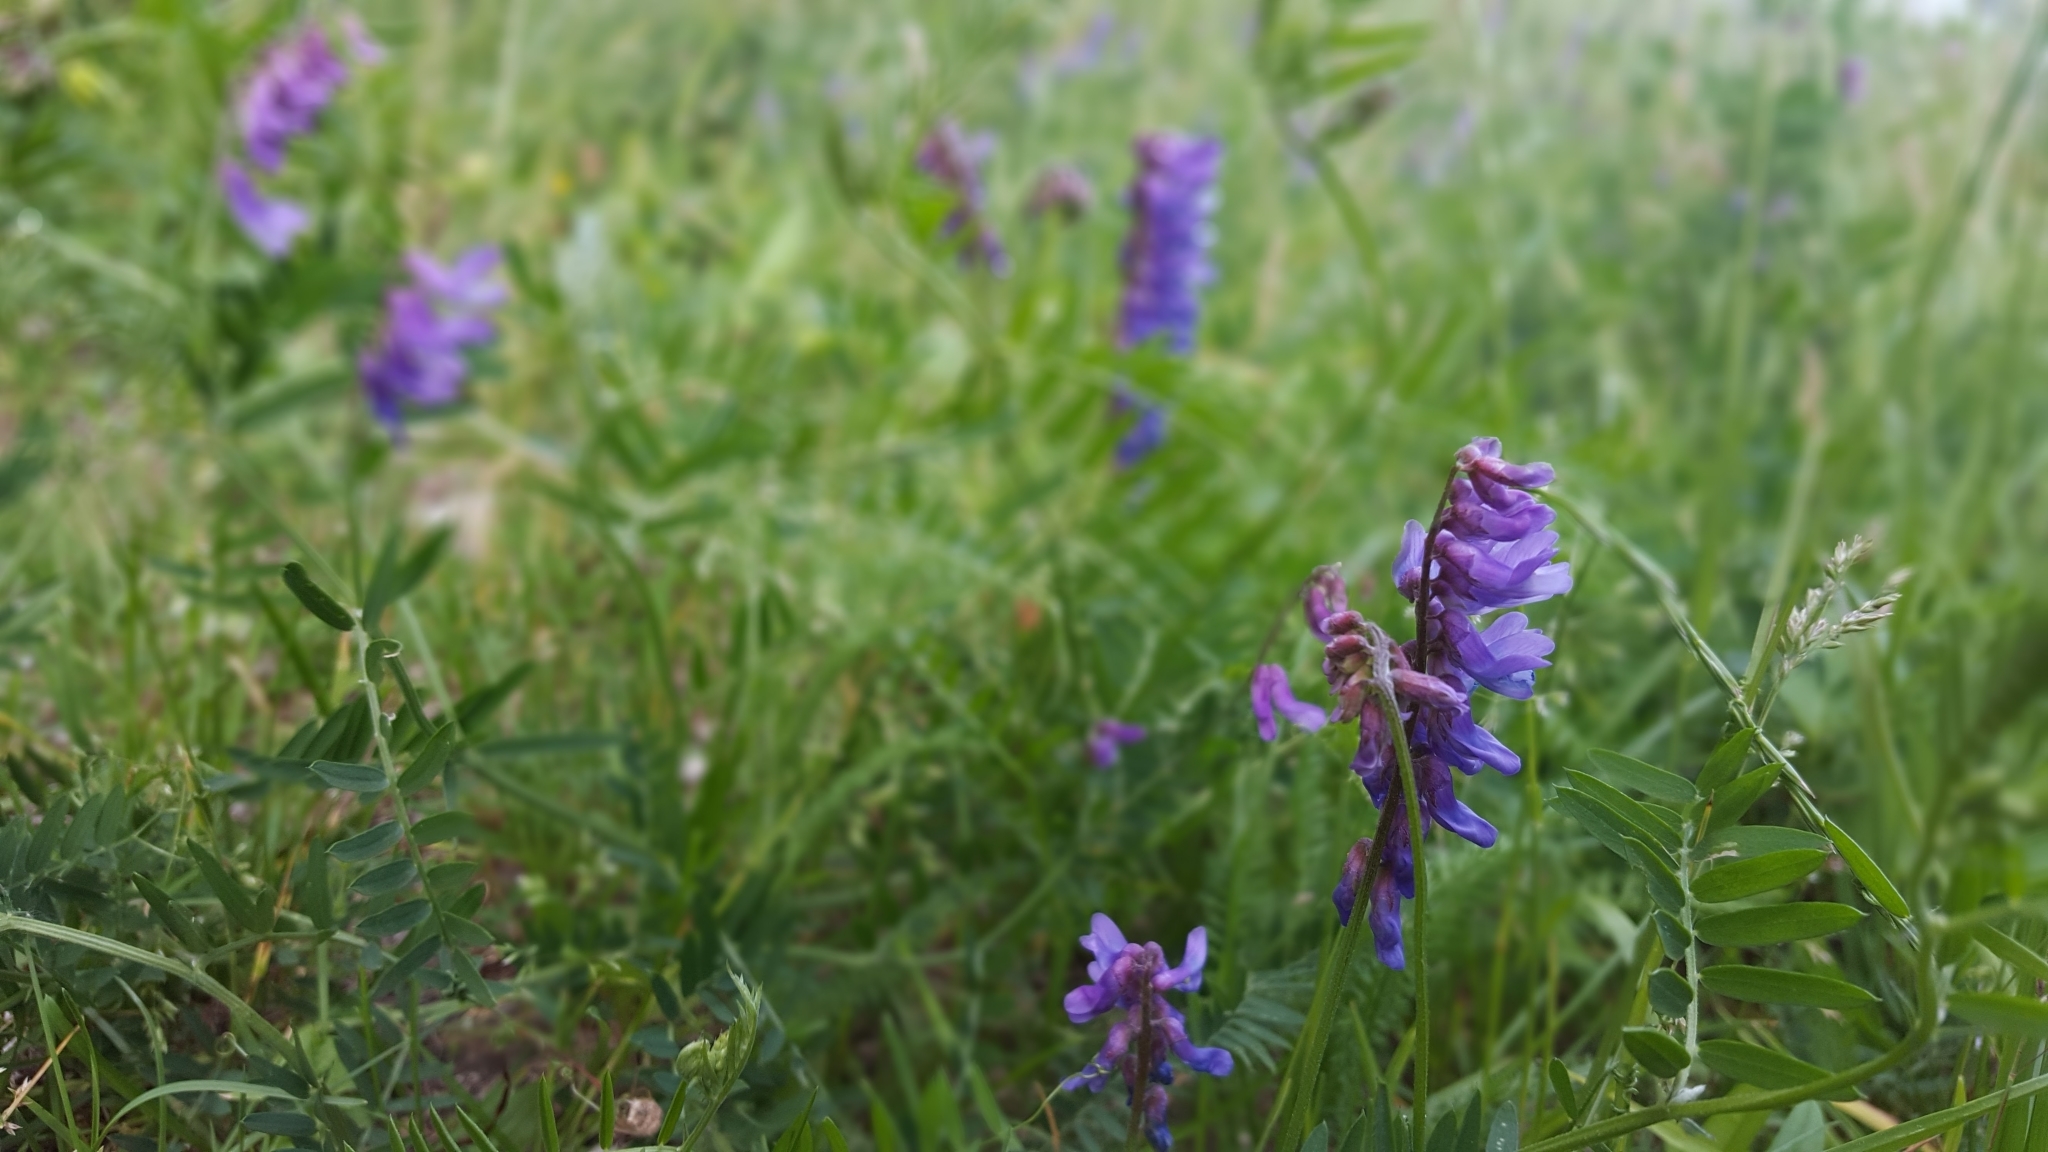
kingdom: Plantae
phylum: Tracheophyta
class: Magnoliopsida
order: Fabales
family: Fabaceae
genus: Vicia
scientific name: Vicia cracca
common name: Bird vetch
